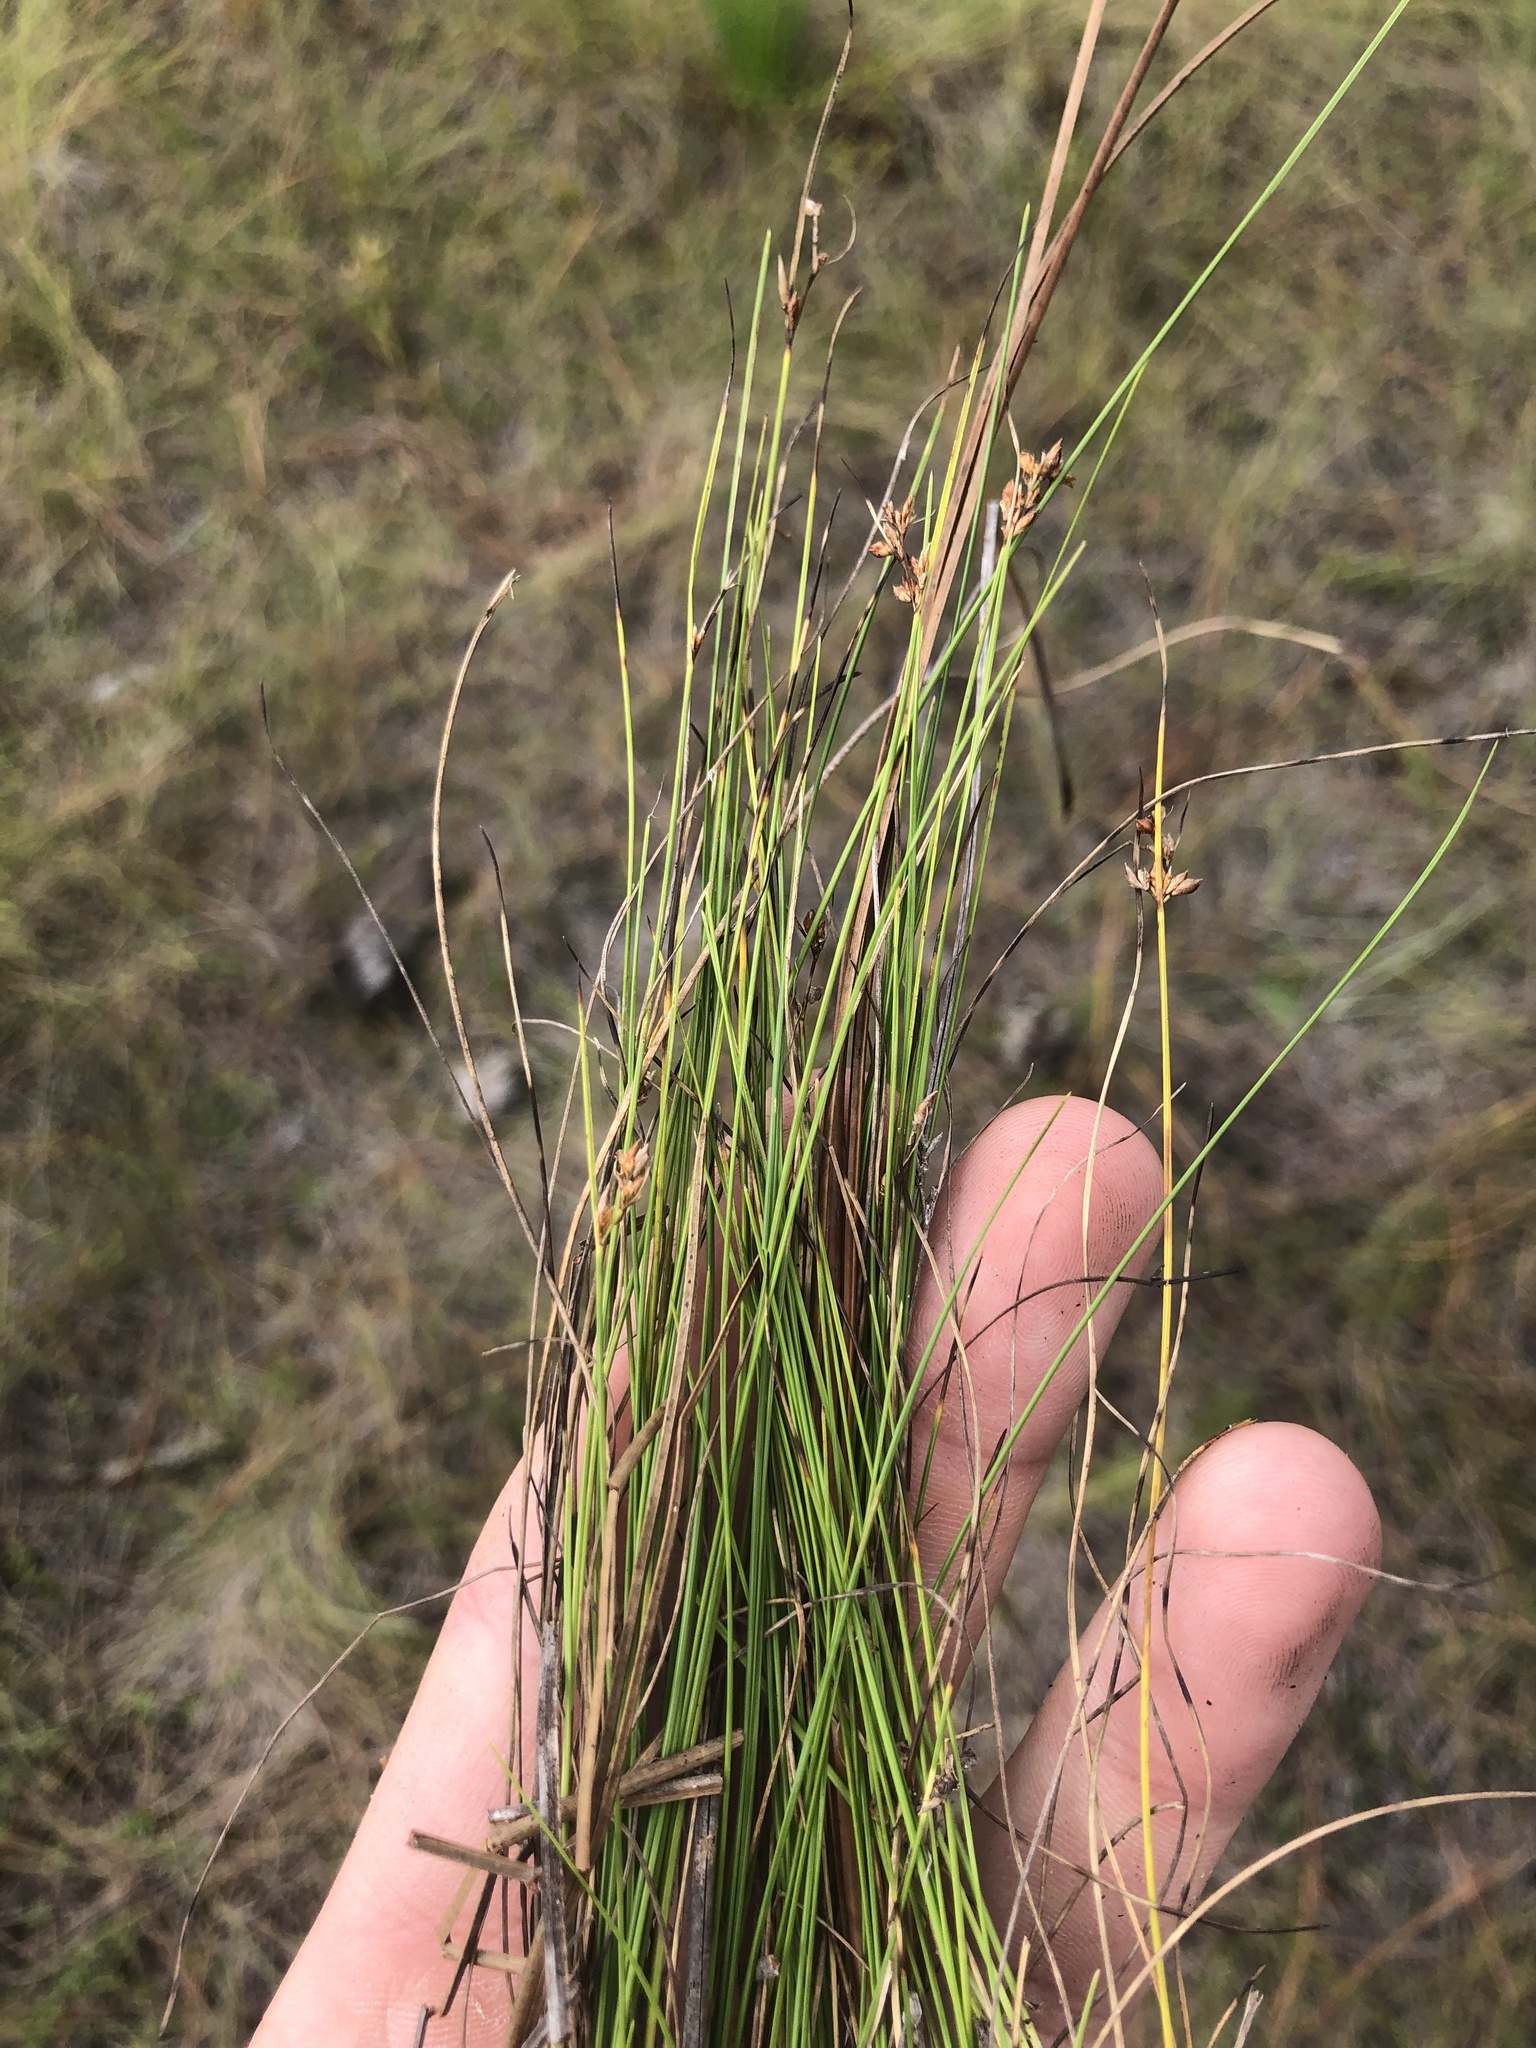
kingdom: Plantae
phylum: Tracheophyta
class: Liliopsida
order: Poales
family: Cyperaceae
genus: Rhynchospora
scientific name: Rhynchospora plumosa
